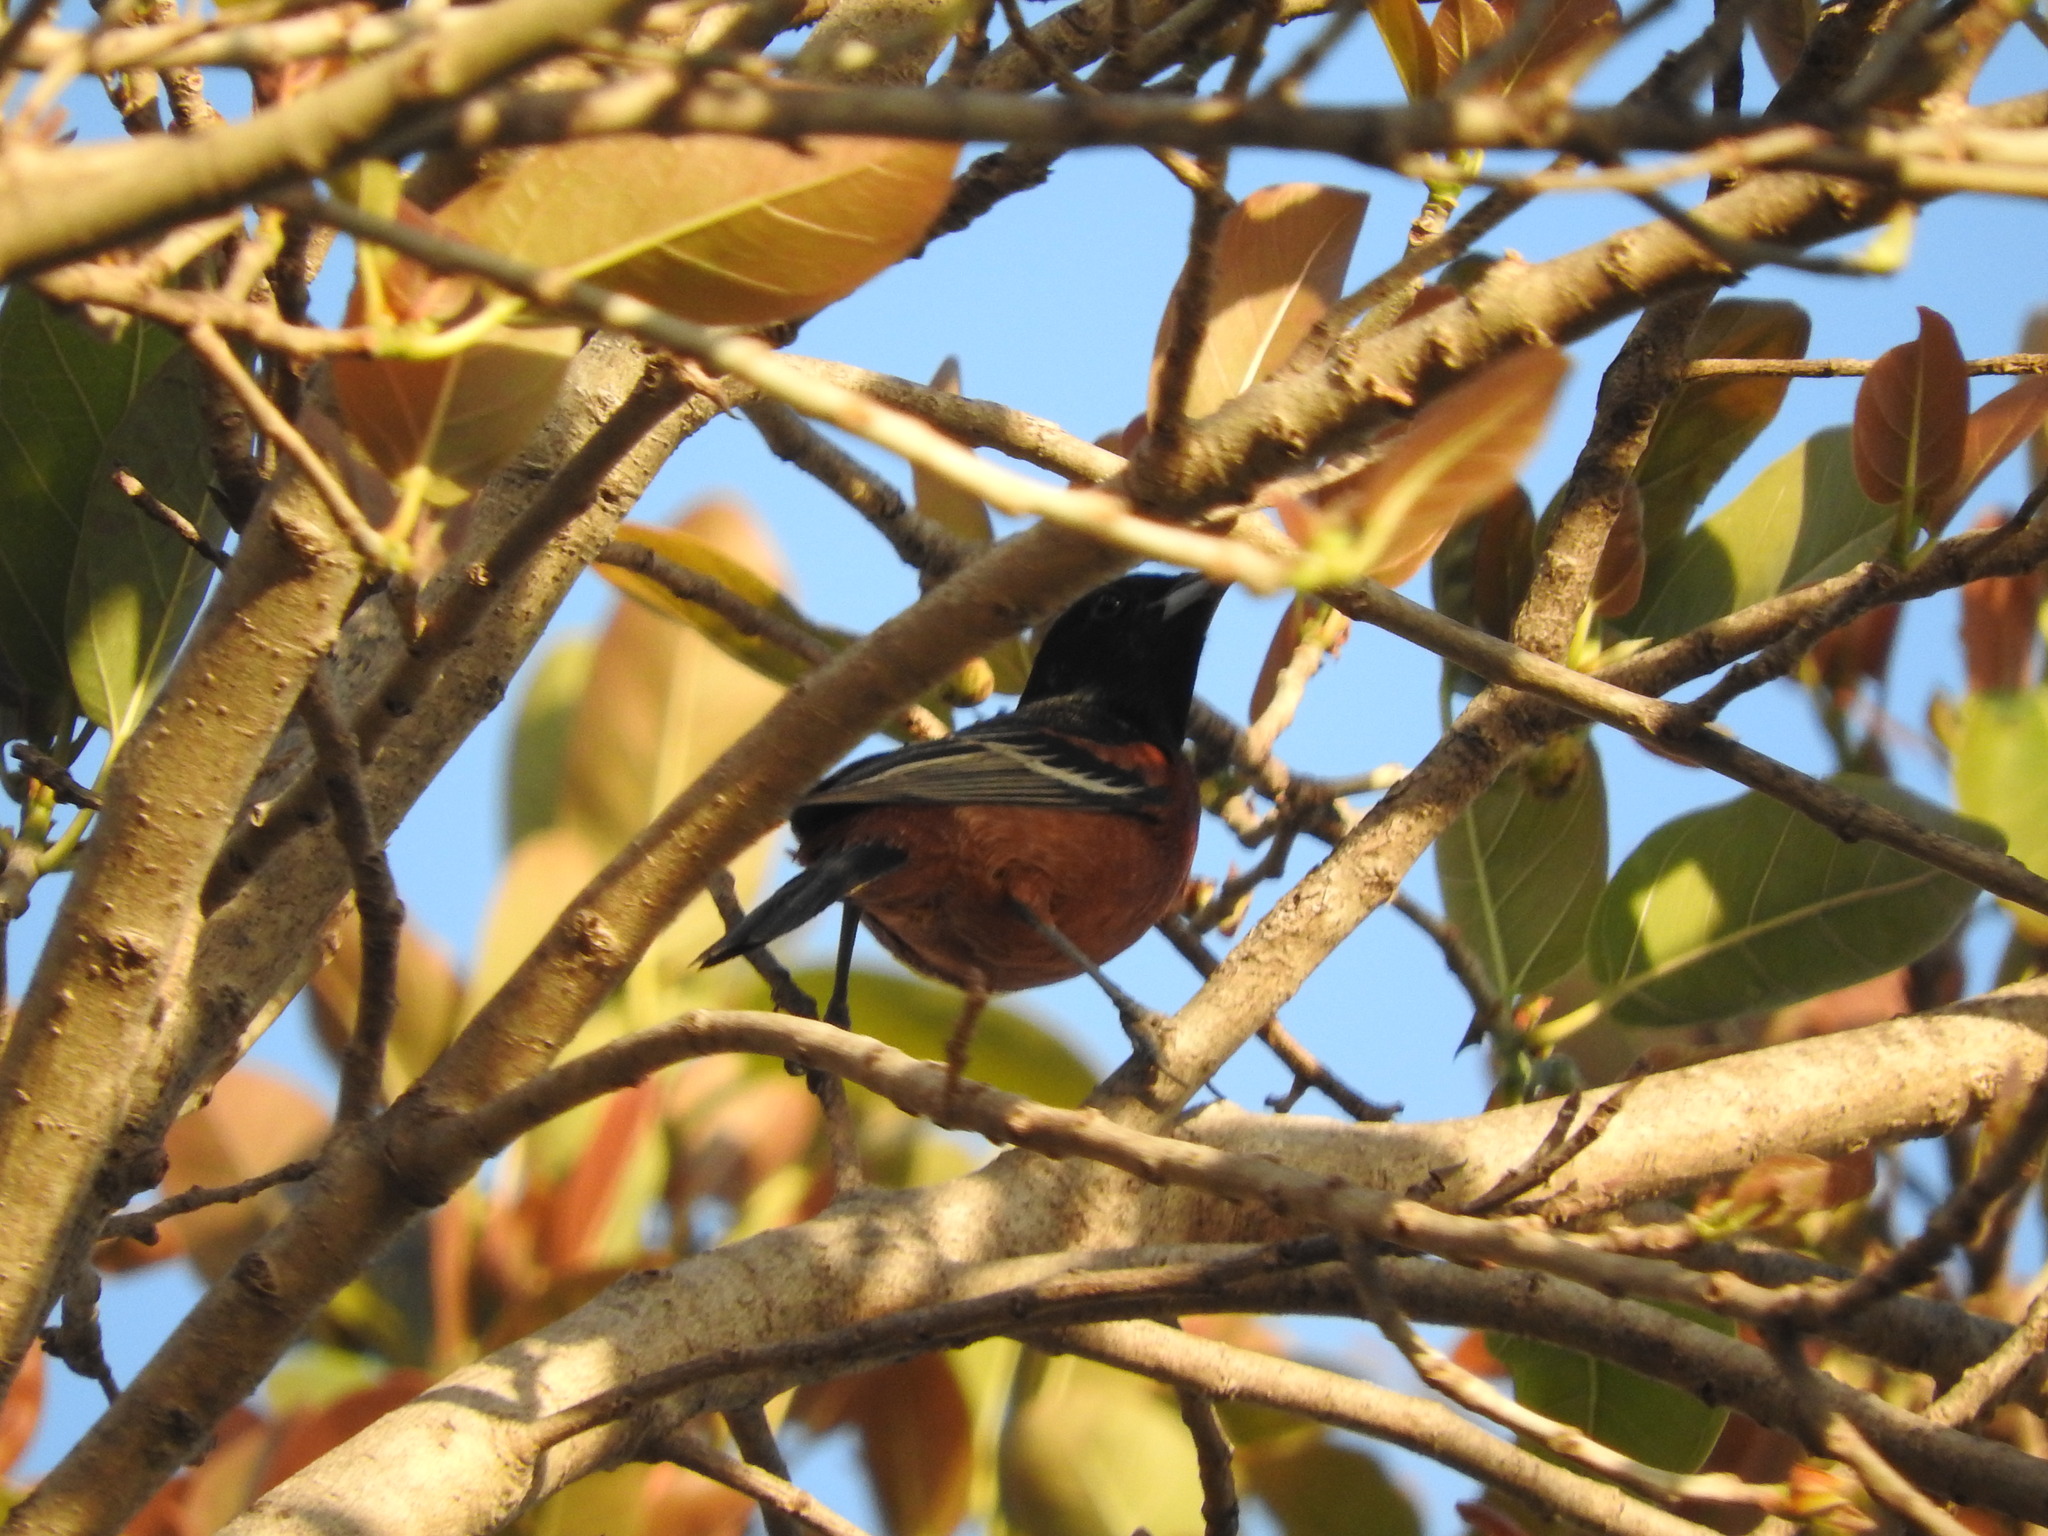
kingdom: Animalia
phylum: Chordata
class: Aves
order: Passeriformes
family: Icteridae
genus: Icterus
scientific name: Icterus spurius
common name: Orchard oriole
